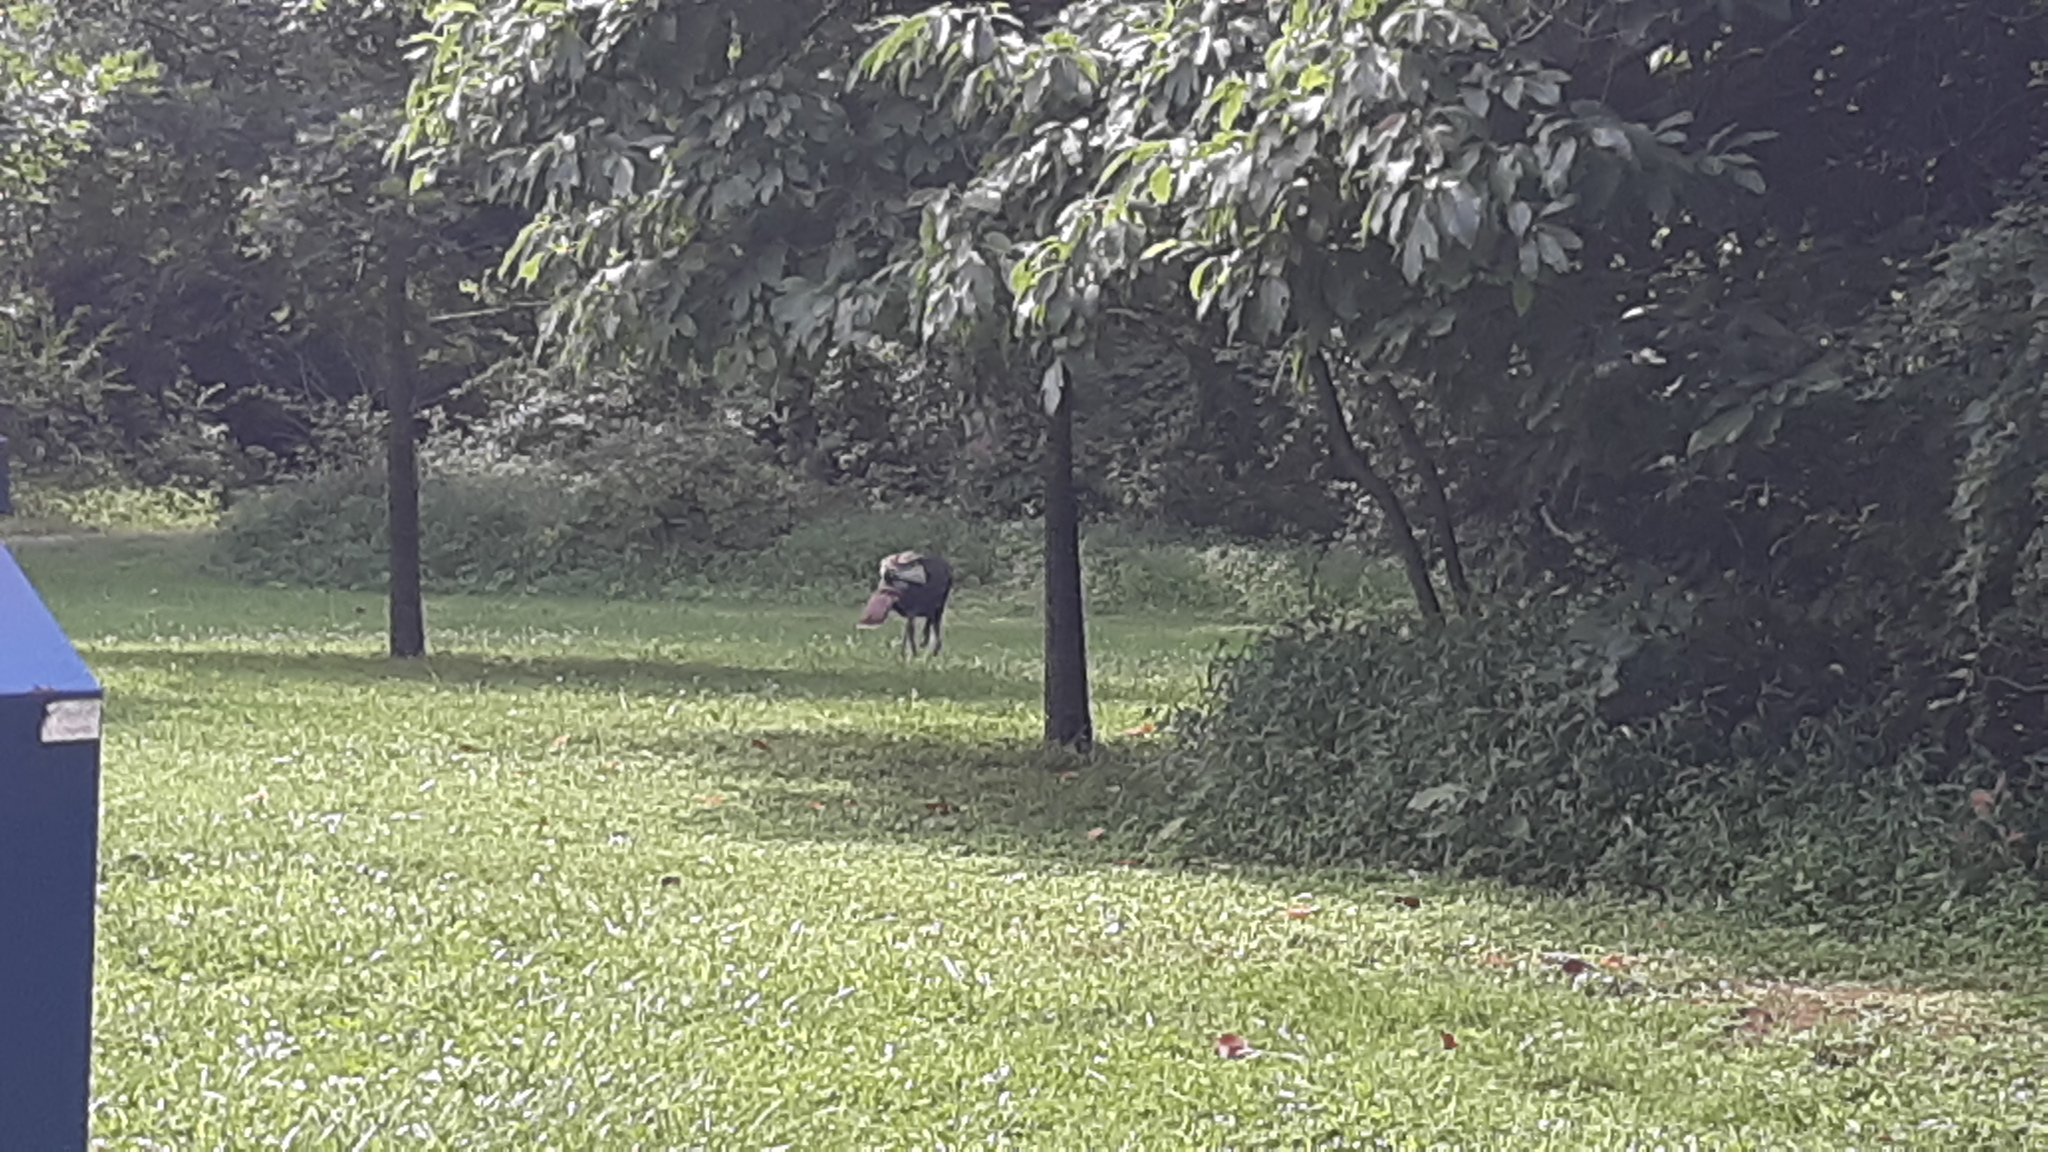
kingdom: Animalia
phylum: Chordata
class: Aves
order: Galliformes
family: Phasianidae
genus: Meleagris
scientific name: Meleagris gallopavo
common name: Wild turkey
